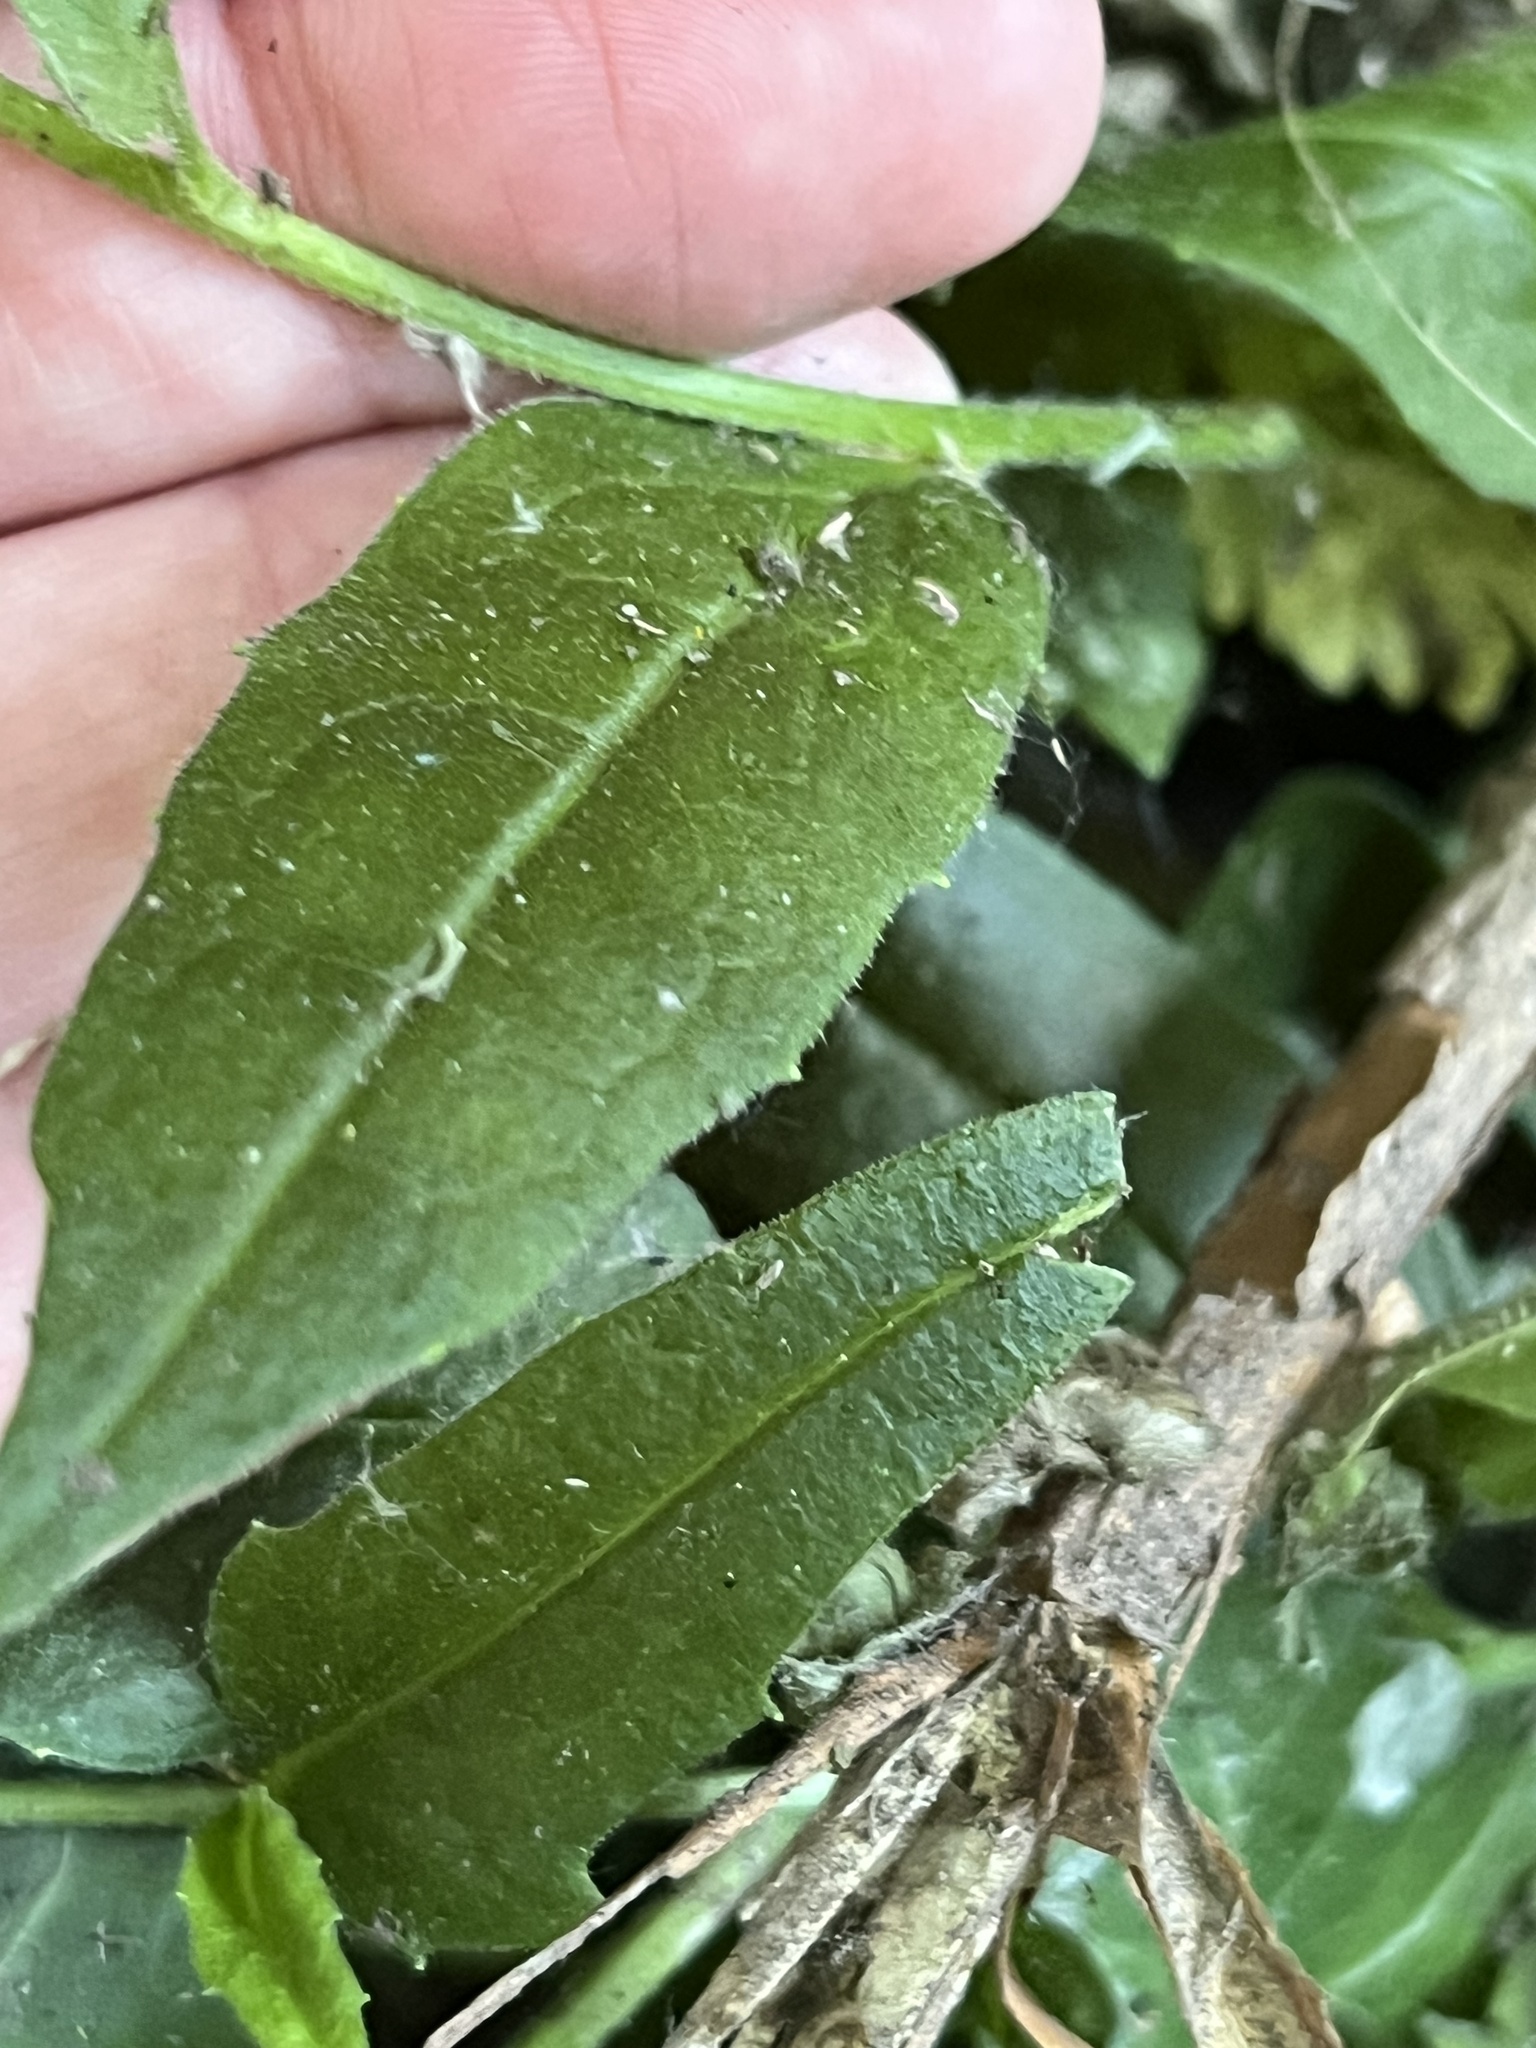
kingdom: Plantae
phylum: Tracheophyta
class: Magnoliopsida
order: Brassicales
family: Brassicaceae
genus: Hesperis
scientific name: Hesperis matronalis
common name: Dame's-violet
